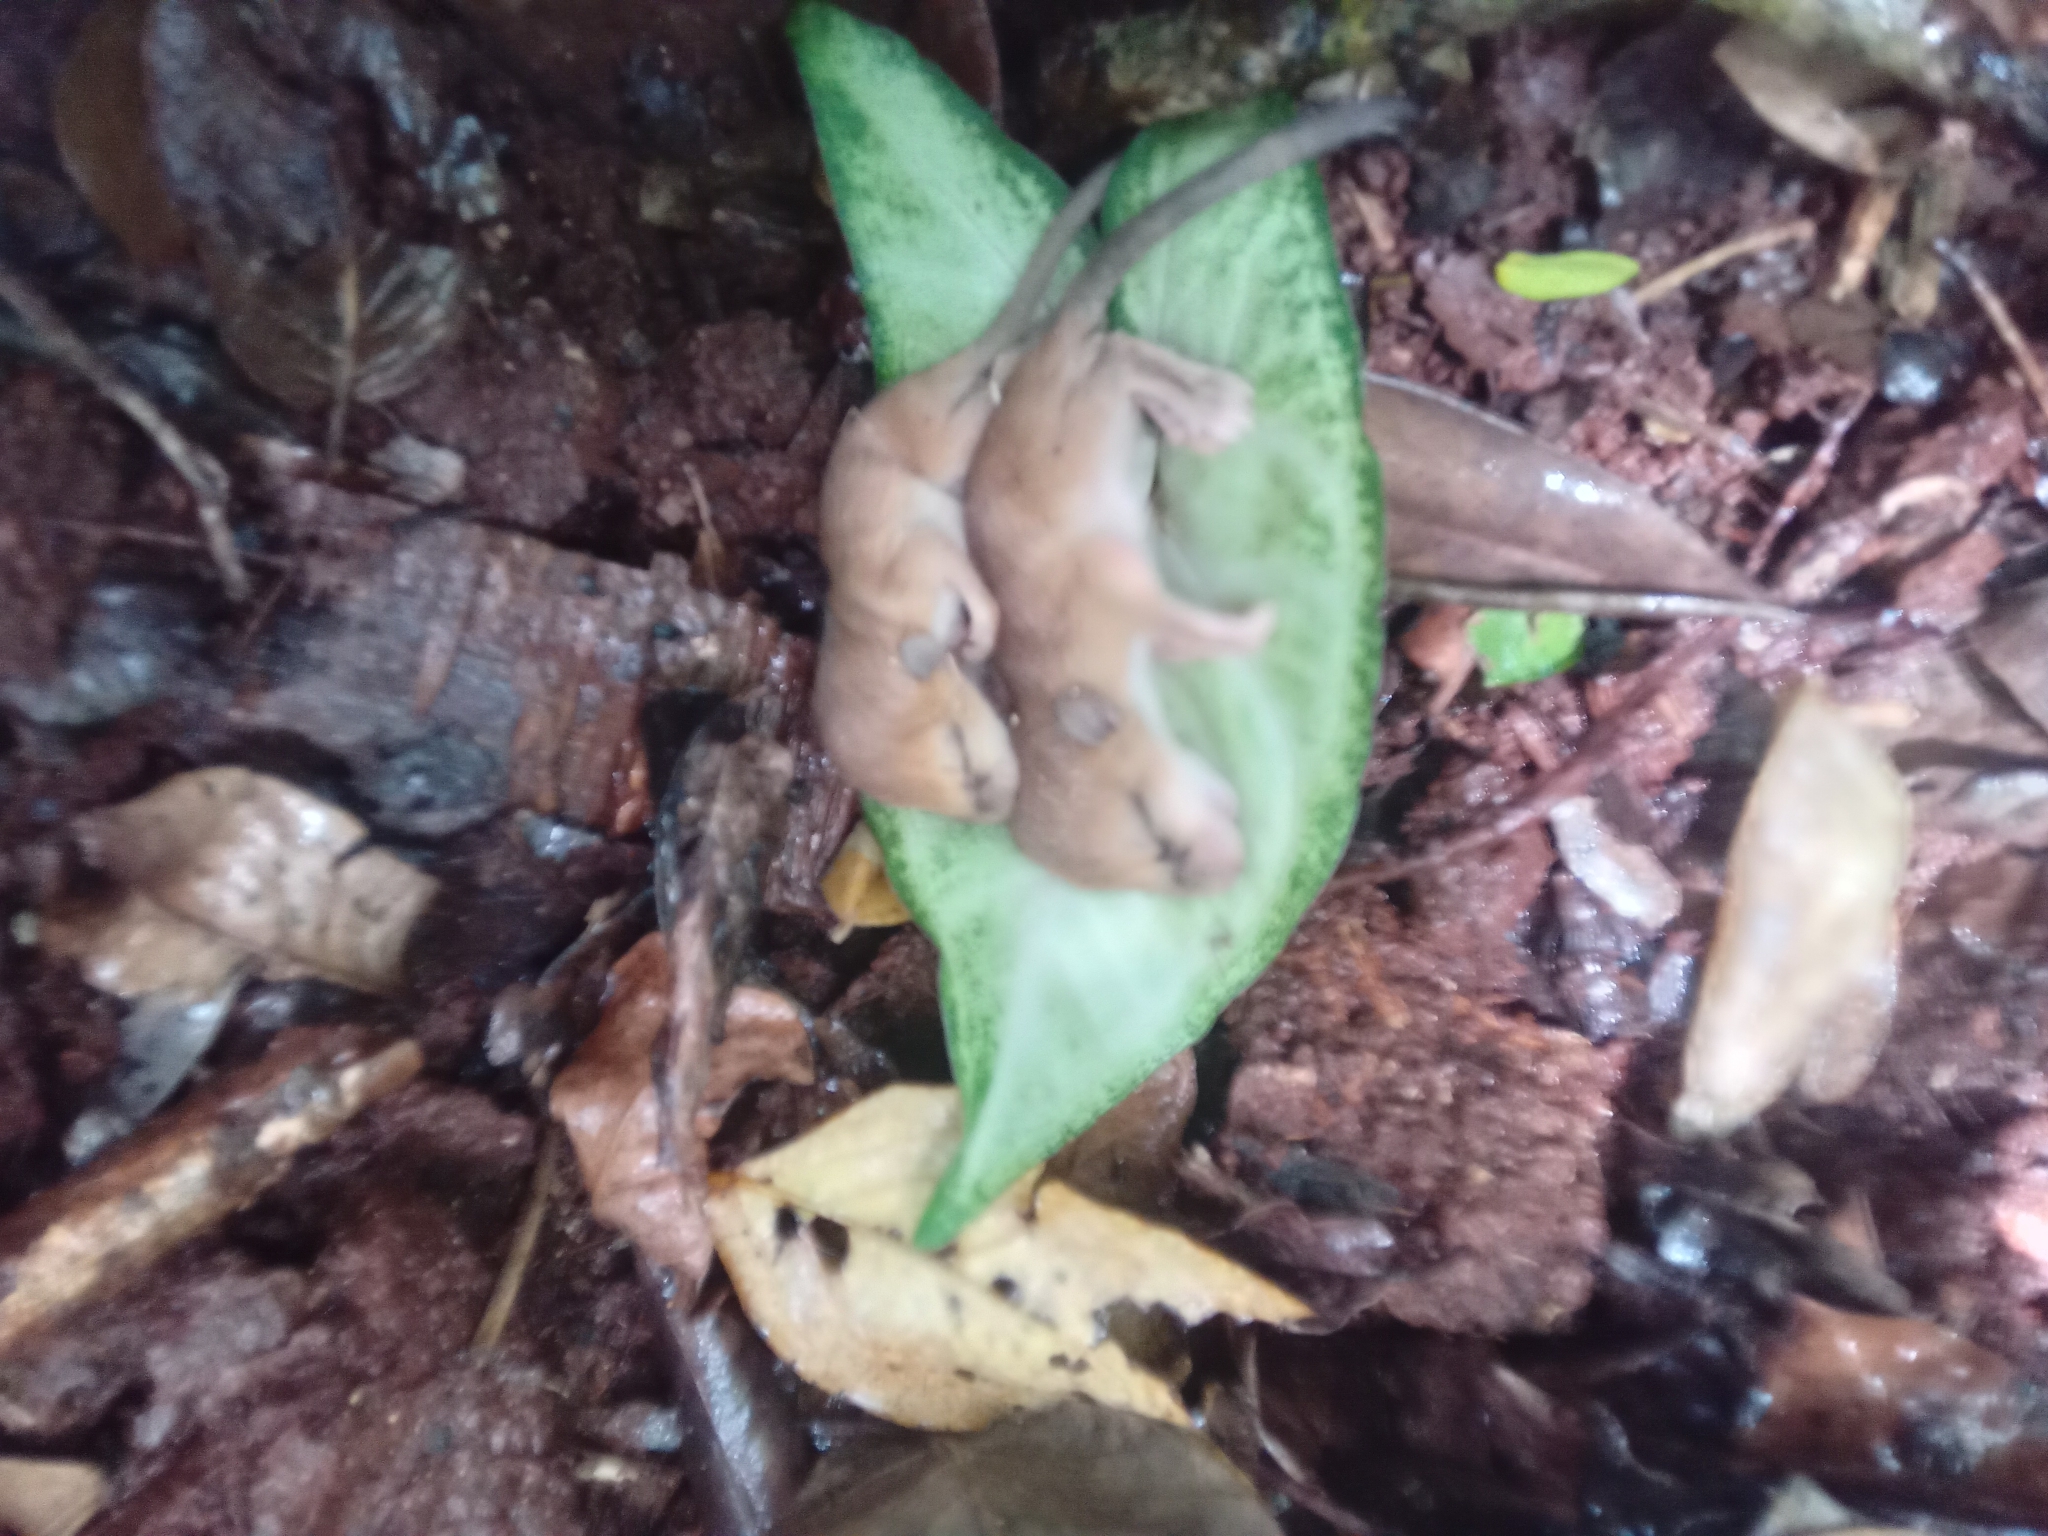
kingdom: Animalia
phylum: Chordata
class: Mammalia
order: Rodentia
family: Cricetidae
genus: Otonyctomys
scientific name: Otonyctomys hatti
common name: Hatt's vesper rat
